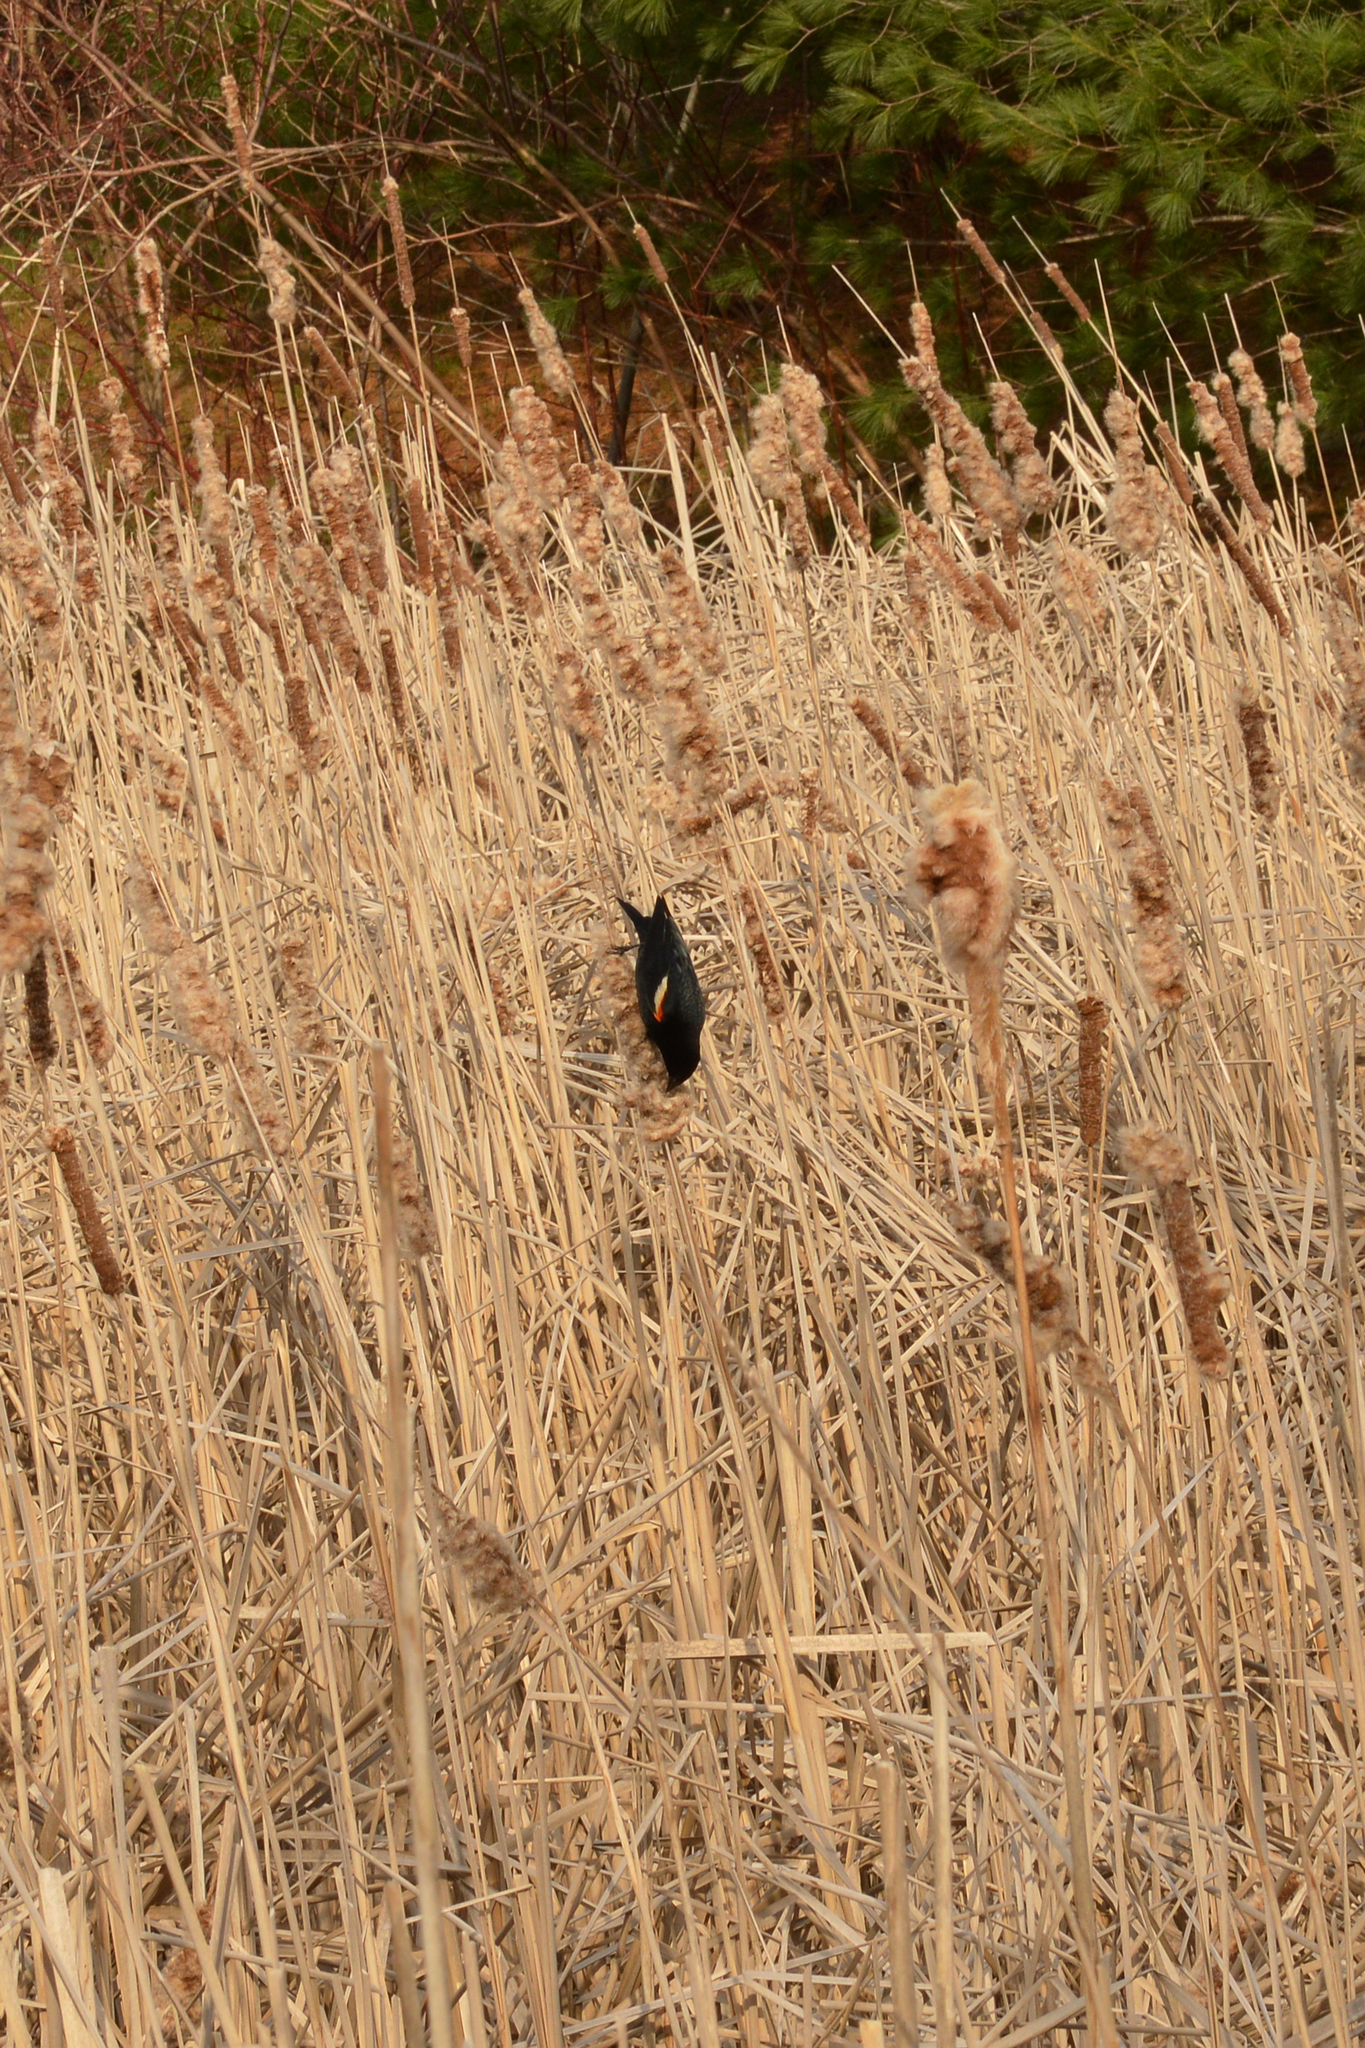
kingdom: Animalia
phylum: Chordata
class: Aves
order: Passeriformes
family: Icteridae
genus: Agelaius
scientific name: Agelaius phoeniceus
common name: Red-winged blackbird
